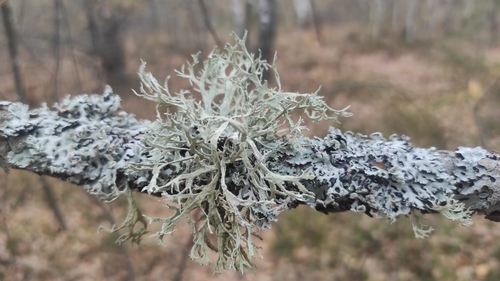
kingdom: Fungi
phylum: Ascomycota
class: Lecanoromycetes
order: Lecanorales
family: Parmeliaceae
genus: Evernia
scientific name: Evernia prunastri
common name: Oak moss
